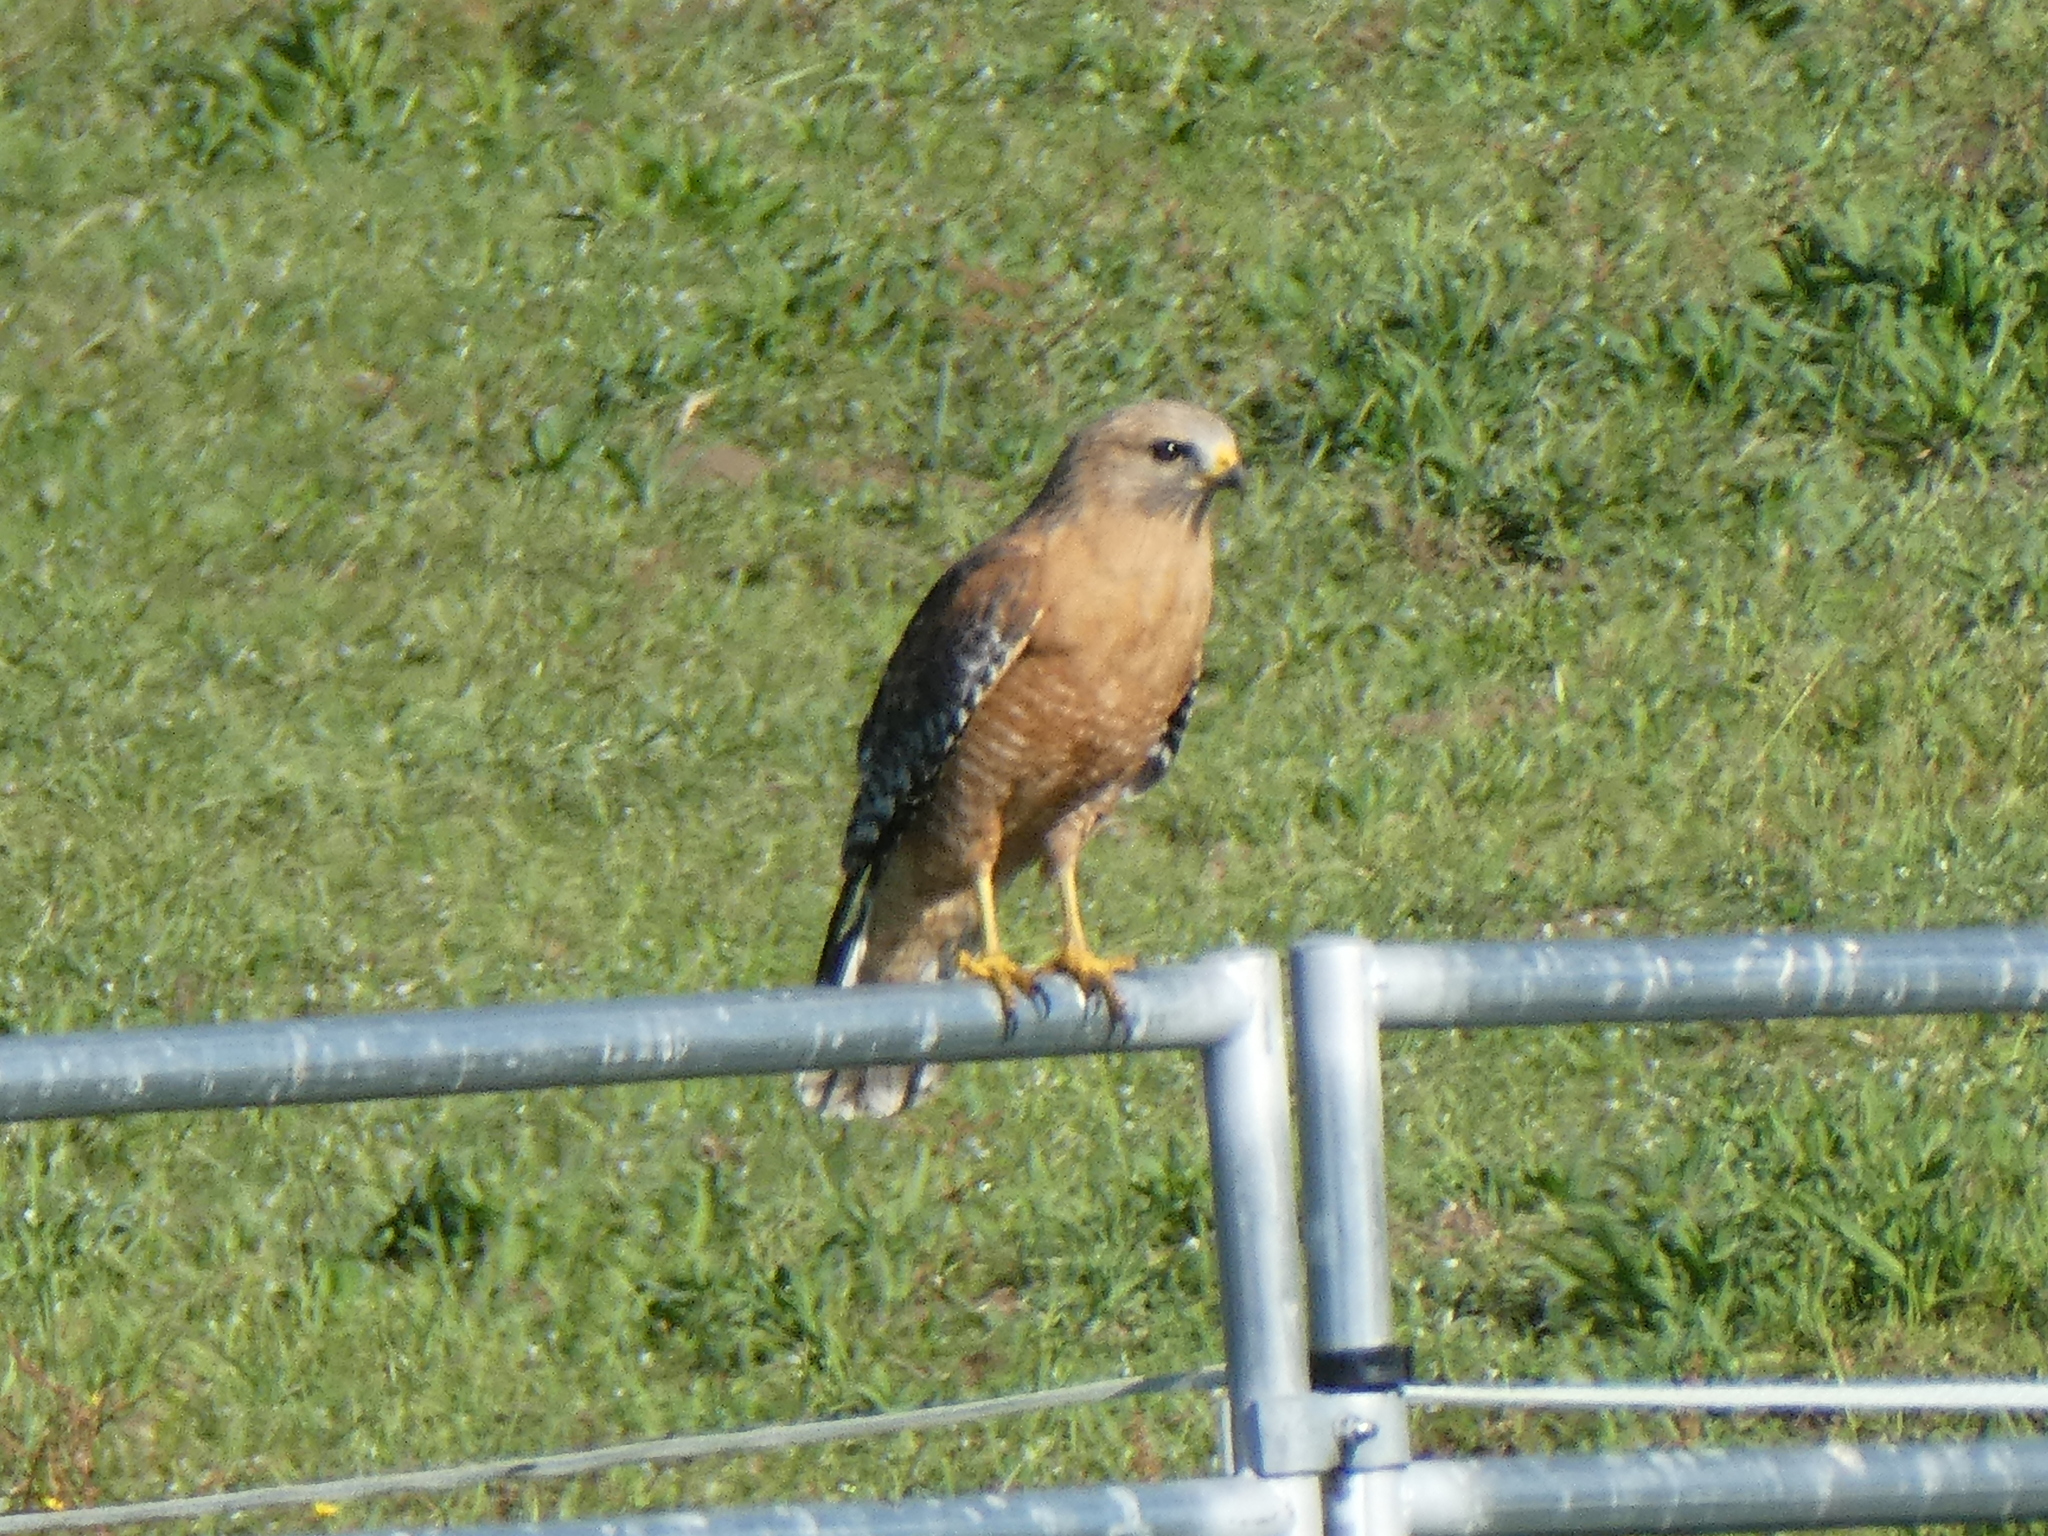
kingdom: Animalia
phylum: Chordata
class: Aves
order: Accipitriformes
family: Accipitridae
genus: Buteo
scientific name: Buteo lineatus
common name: Red-shouldered hawk
